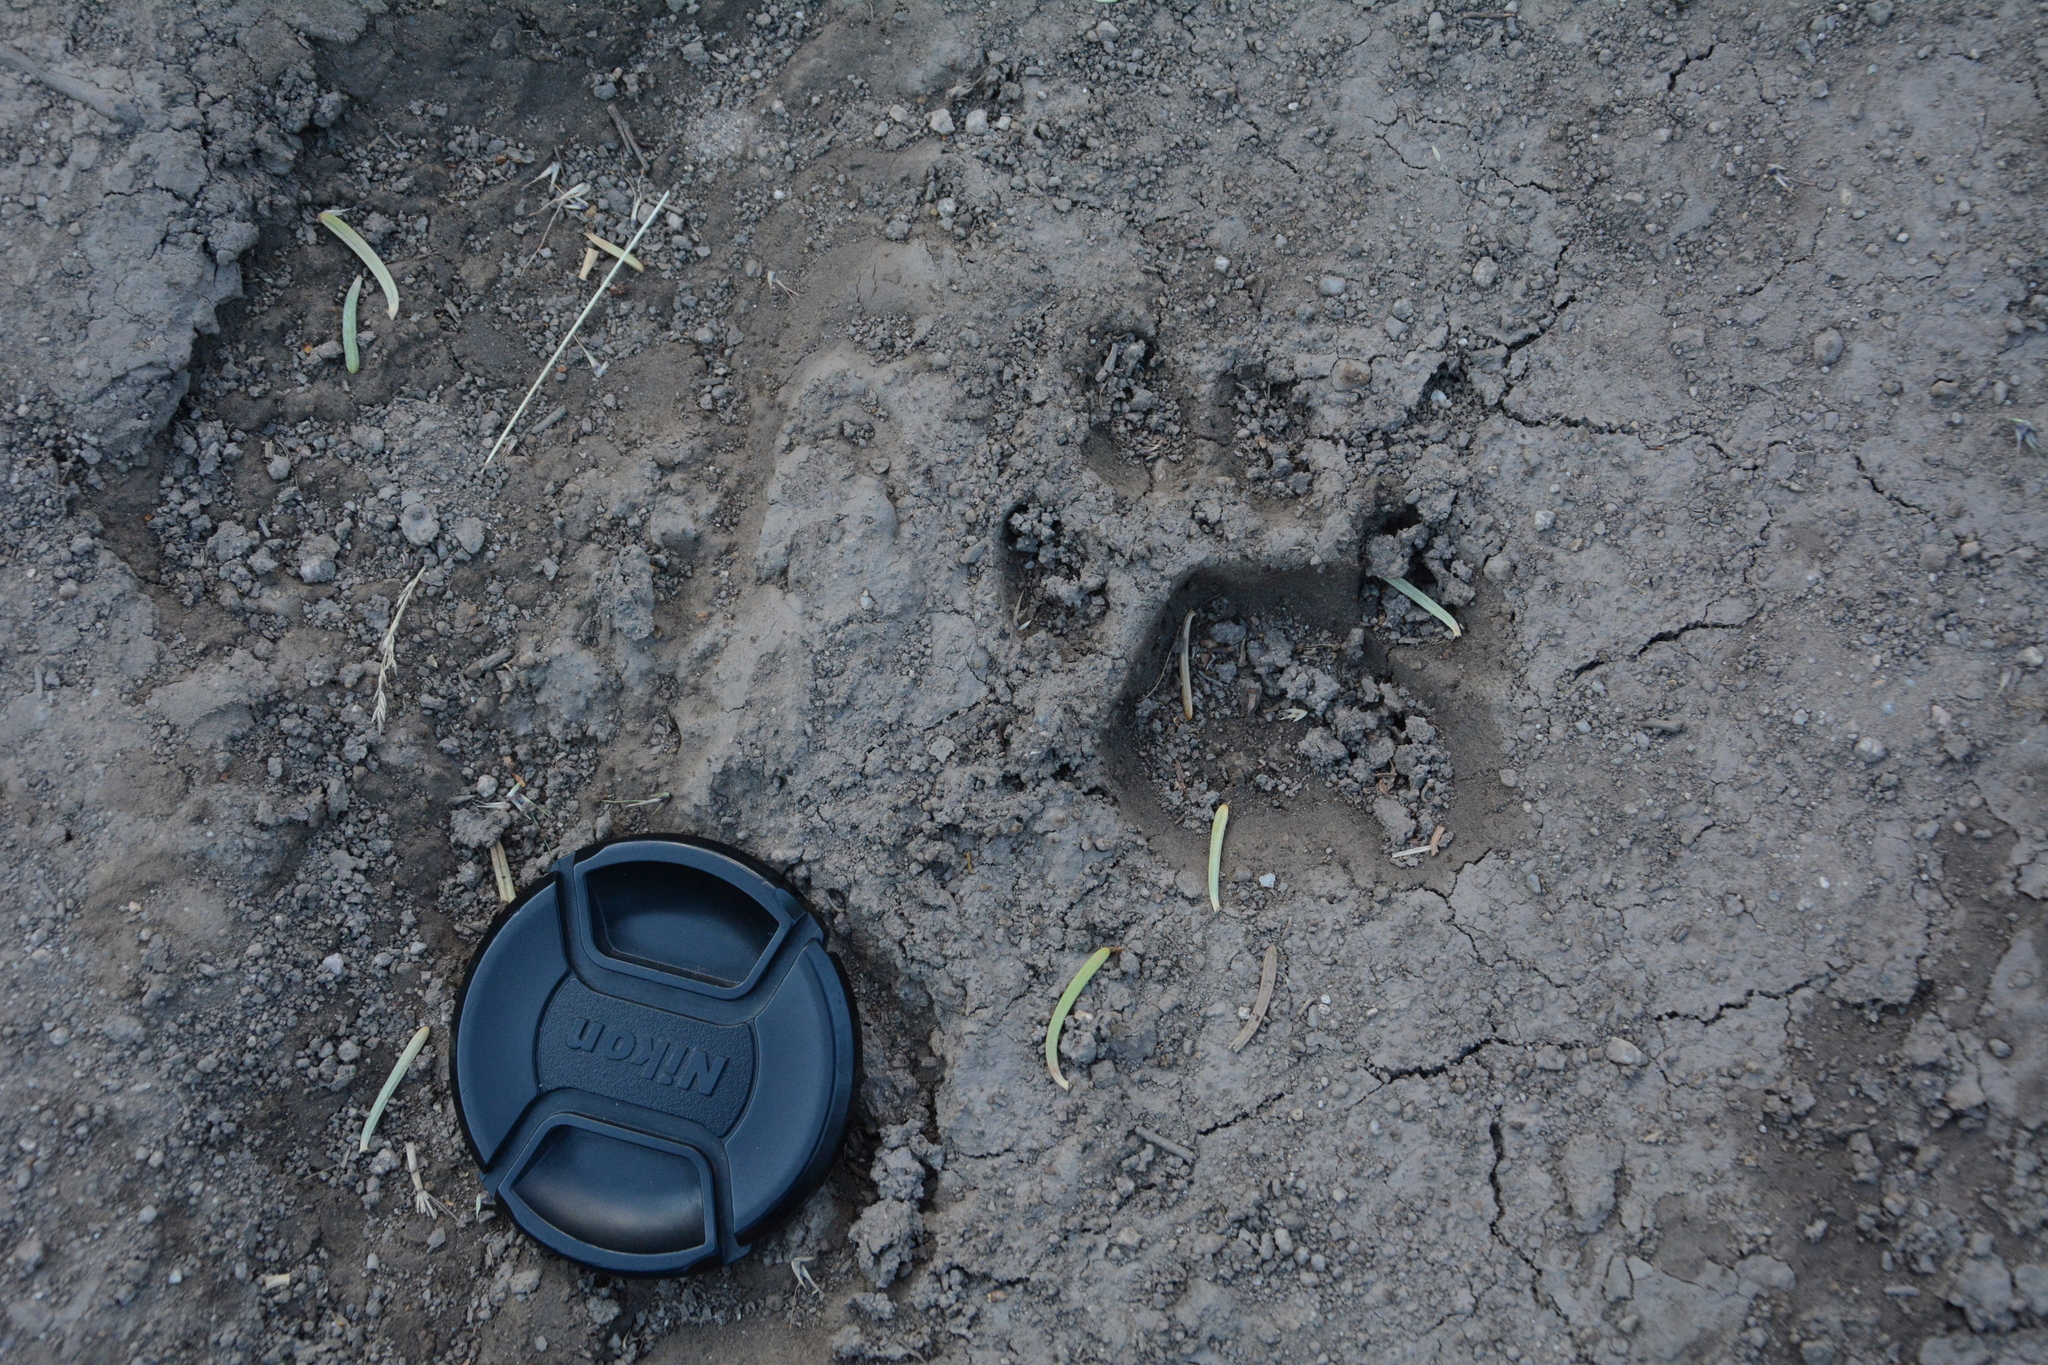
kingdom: Animalia
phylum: Chordata
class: Mammalia
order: Carnivora
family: Felidae
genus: Puma
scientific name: Puma concolor
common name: Puma
